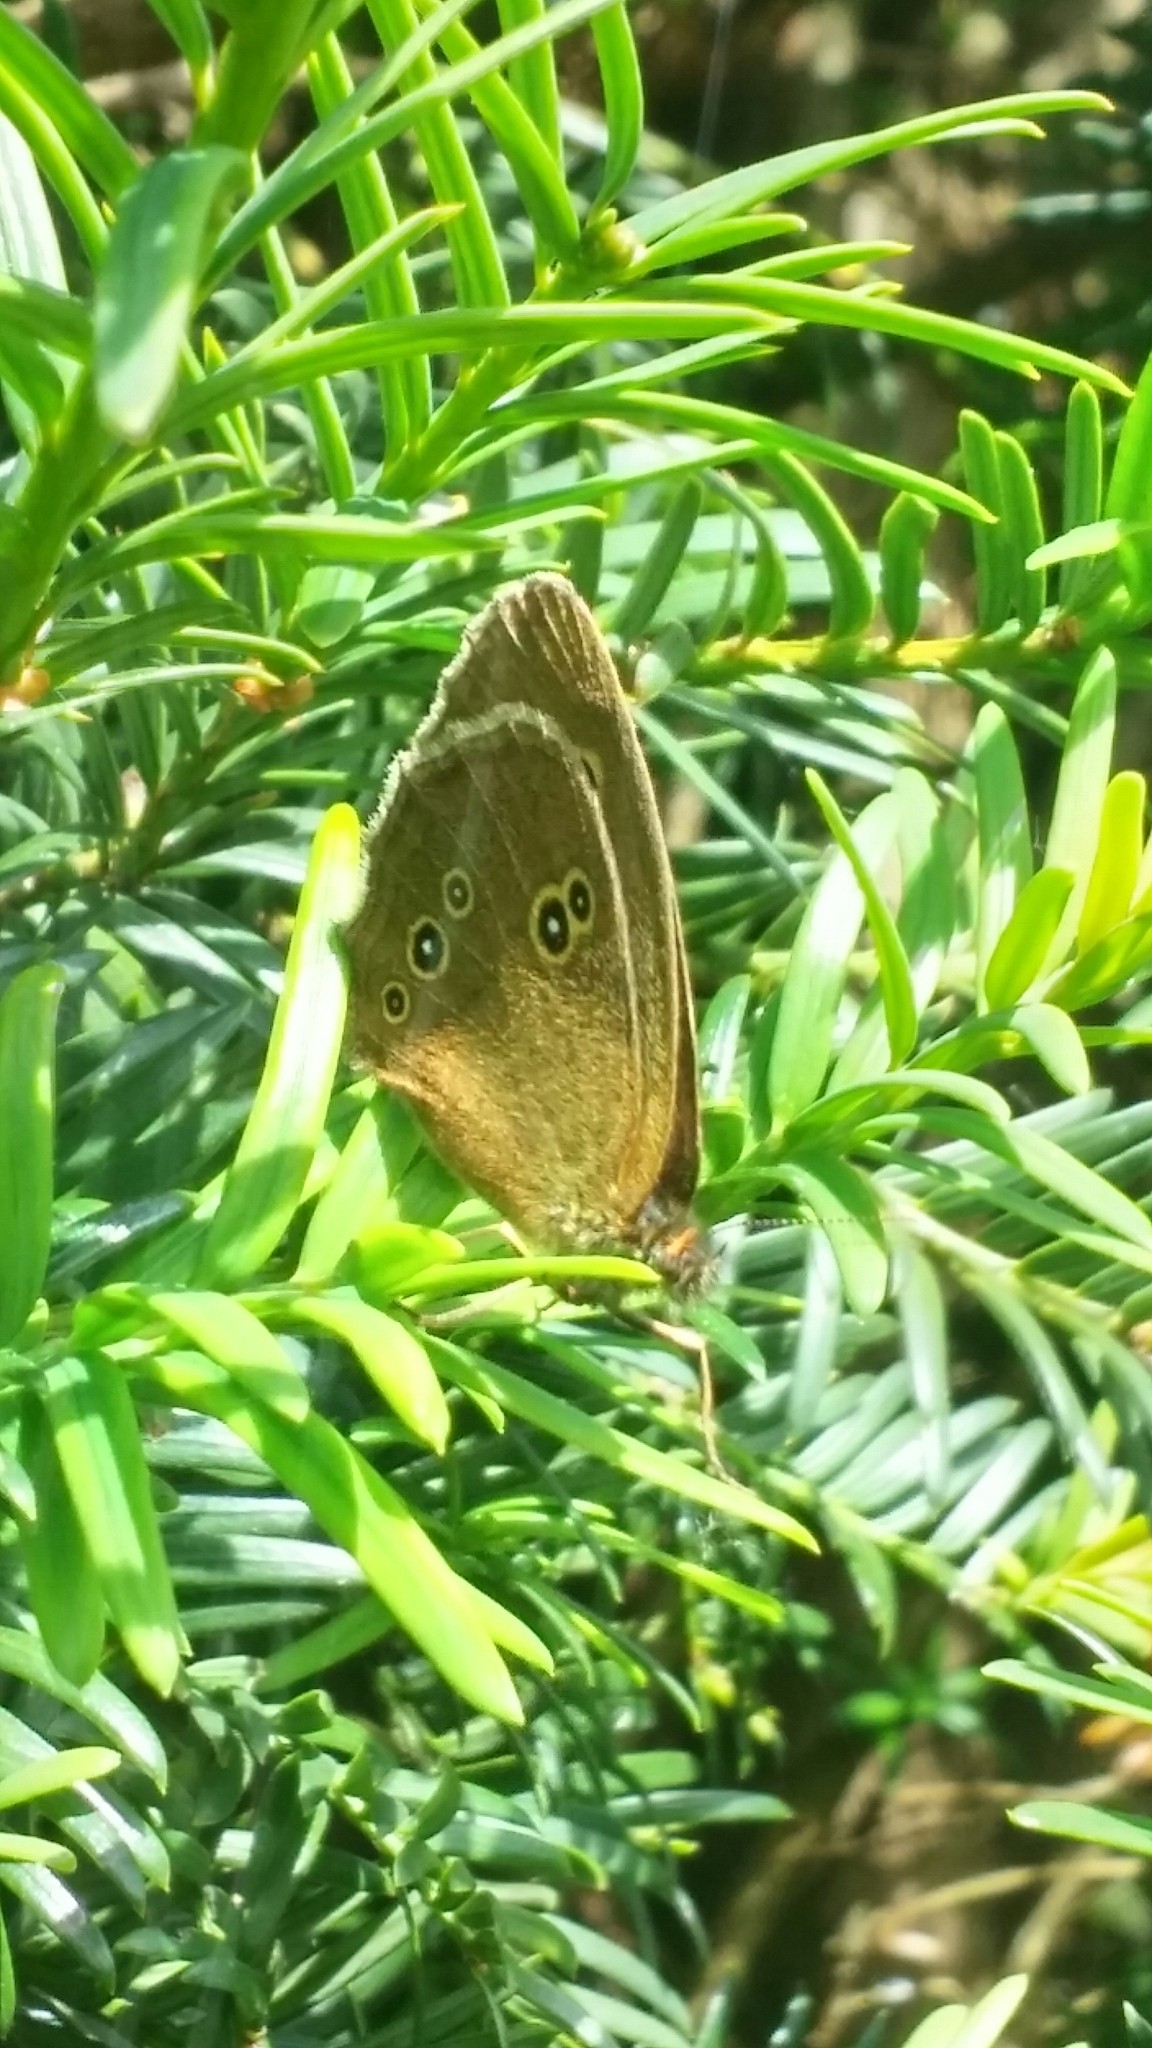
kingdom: Animalia
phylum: Arthropoda
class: Insecta
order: Lepidoptera
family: Nymphalidae
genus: Aphantopus
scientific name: Aphantopus hyperantus
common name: Ringlet
